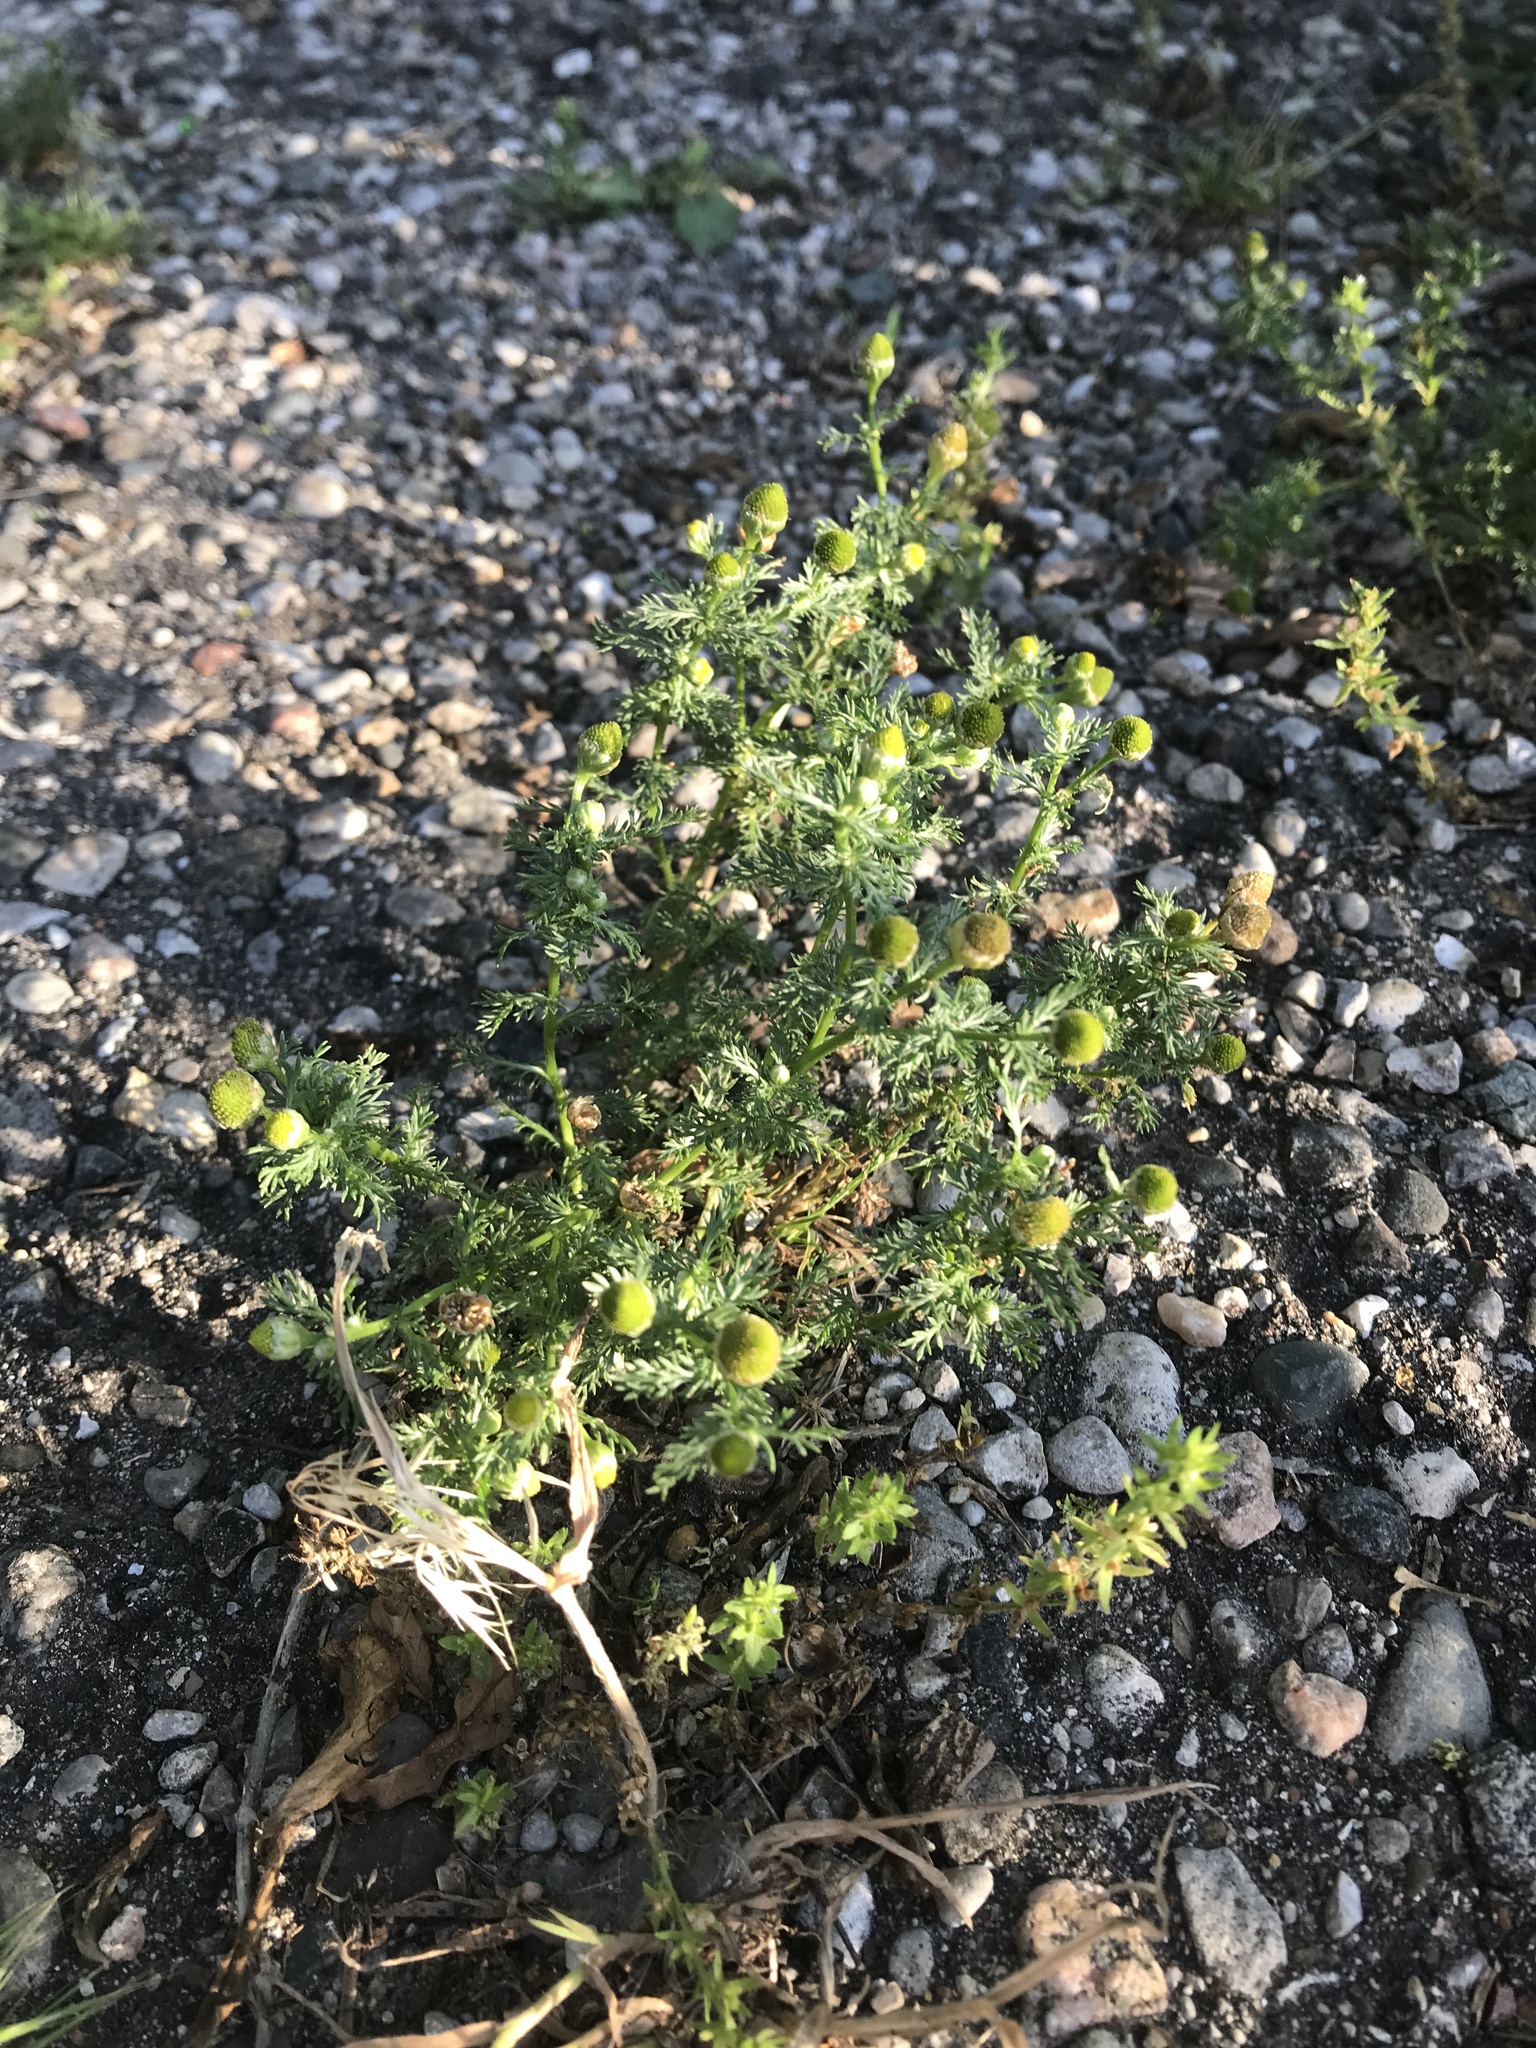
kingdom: Plantae
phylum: Tracheophyta
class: Magnoliopsida
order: Asterales
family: Asteraceae
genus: Matricaria
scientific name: Matricaria discoidea
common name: Disc mayweed
